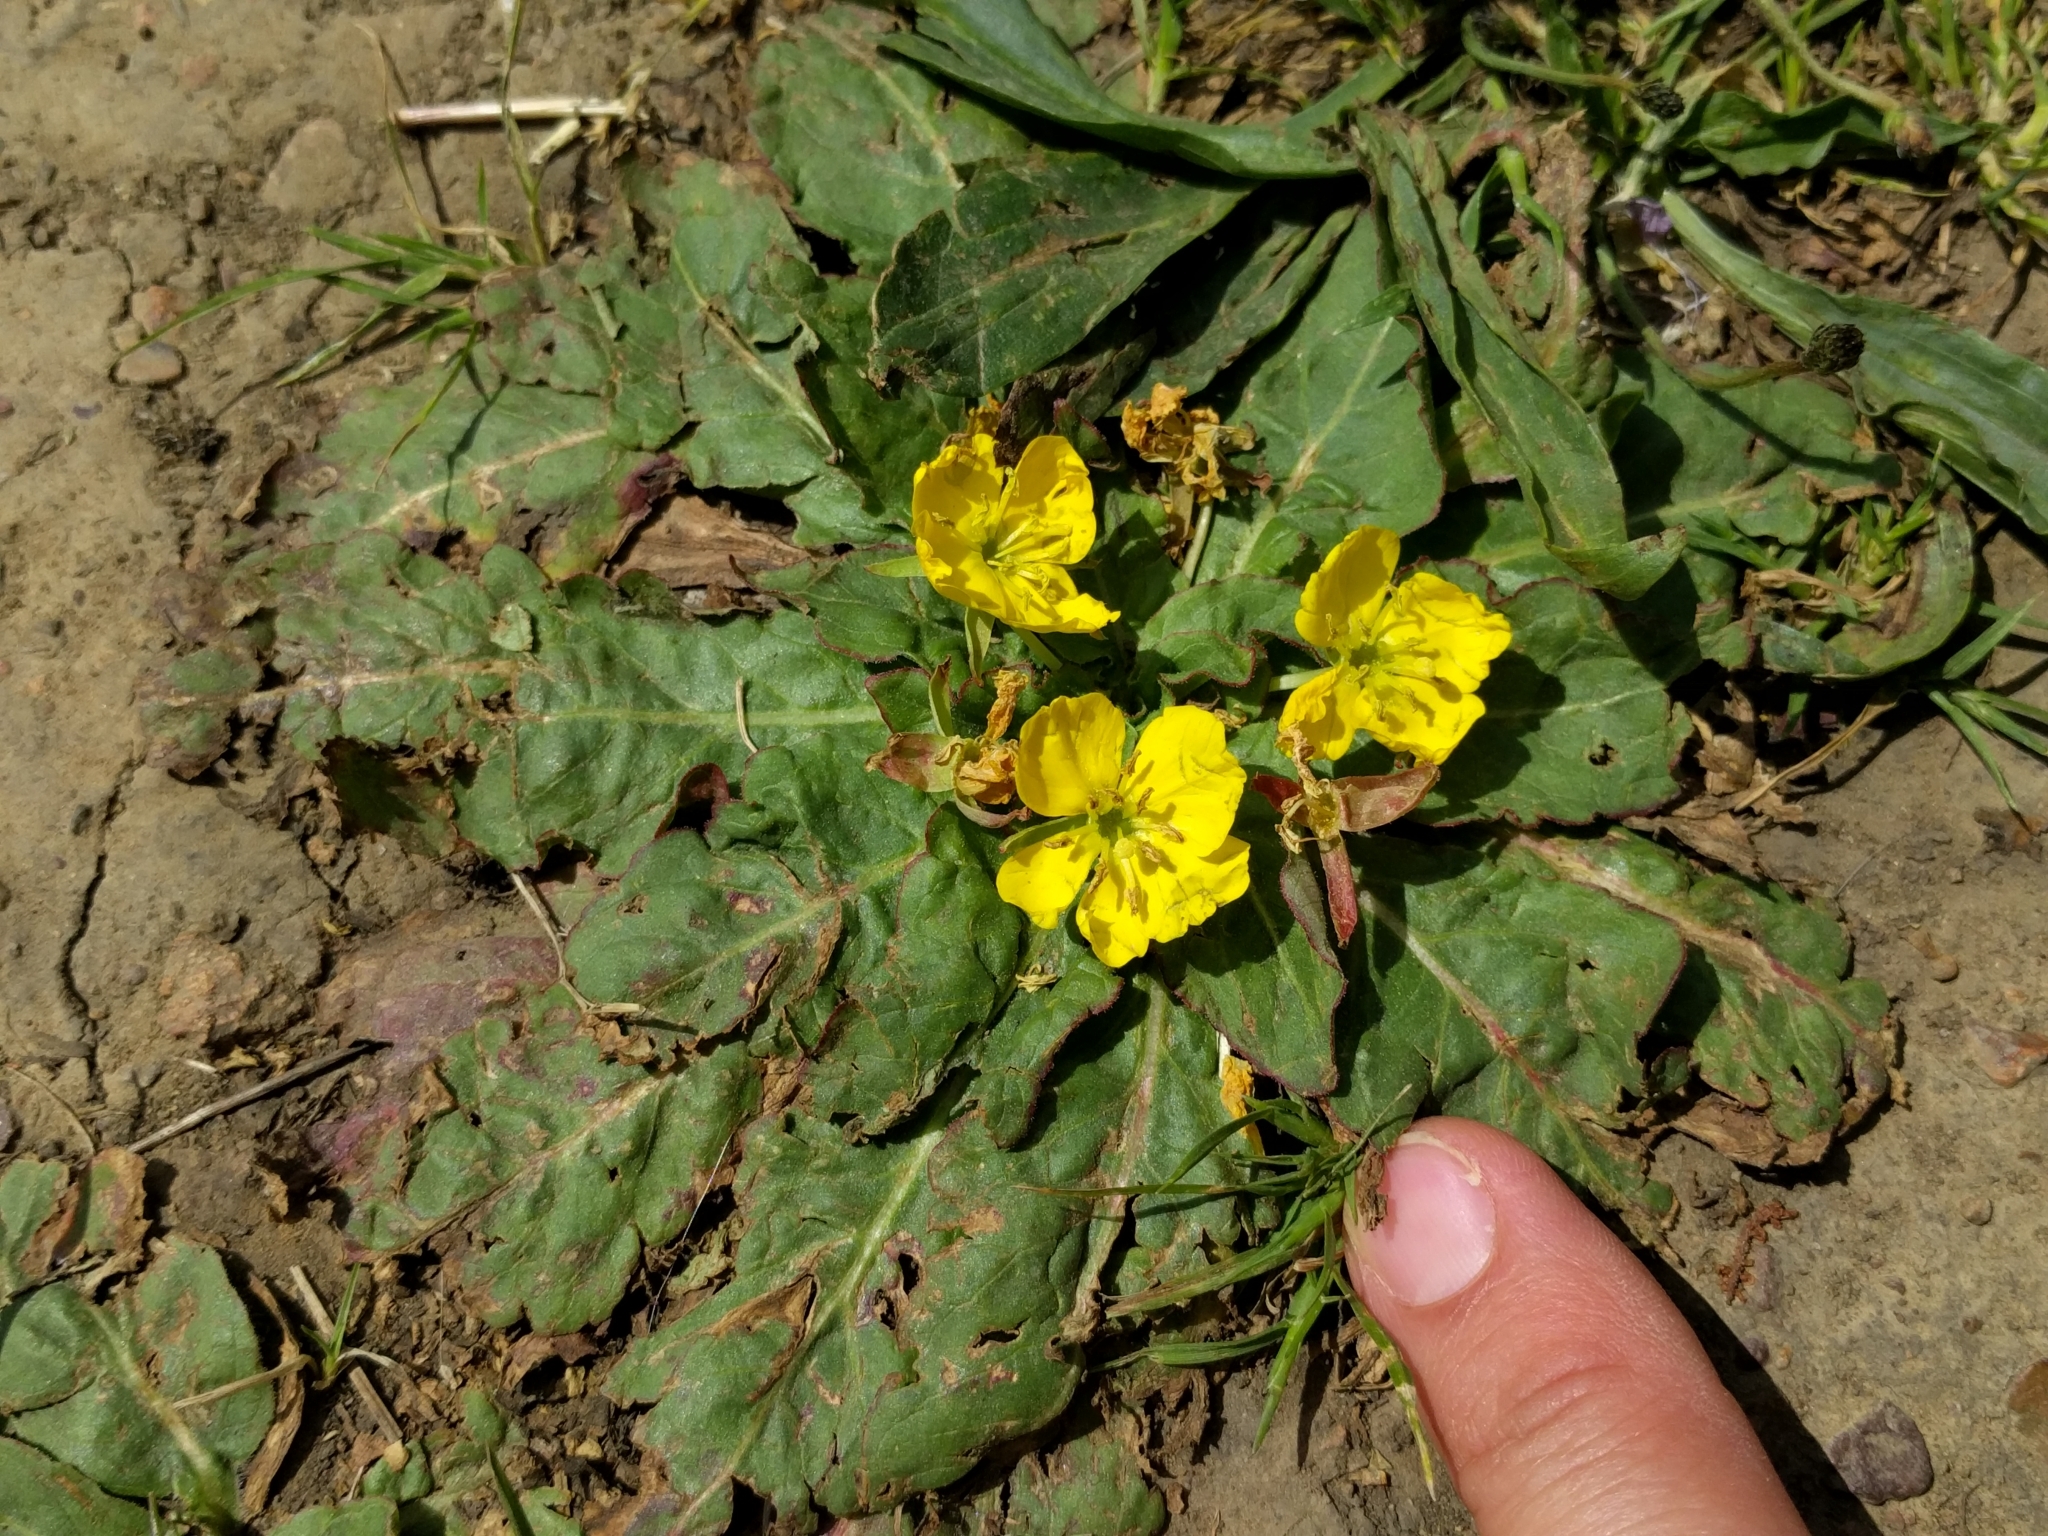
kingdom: Plantae
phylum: Tracheophyta
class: Magnoliopsida
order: Myrtales
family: Onagraceae
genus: Taraxia
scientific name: Taraxia ovata
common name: Goldeneggs
